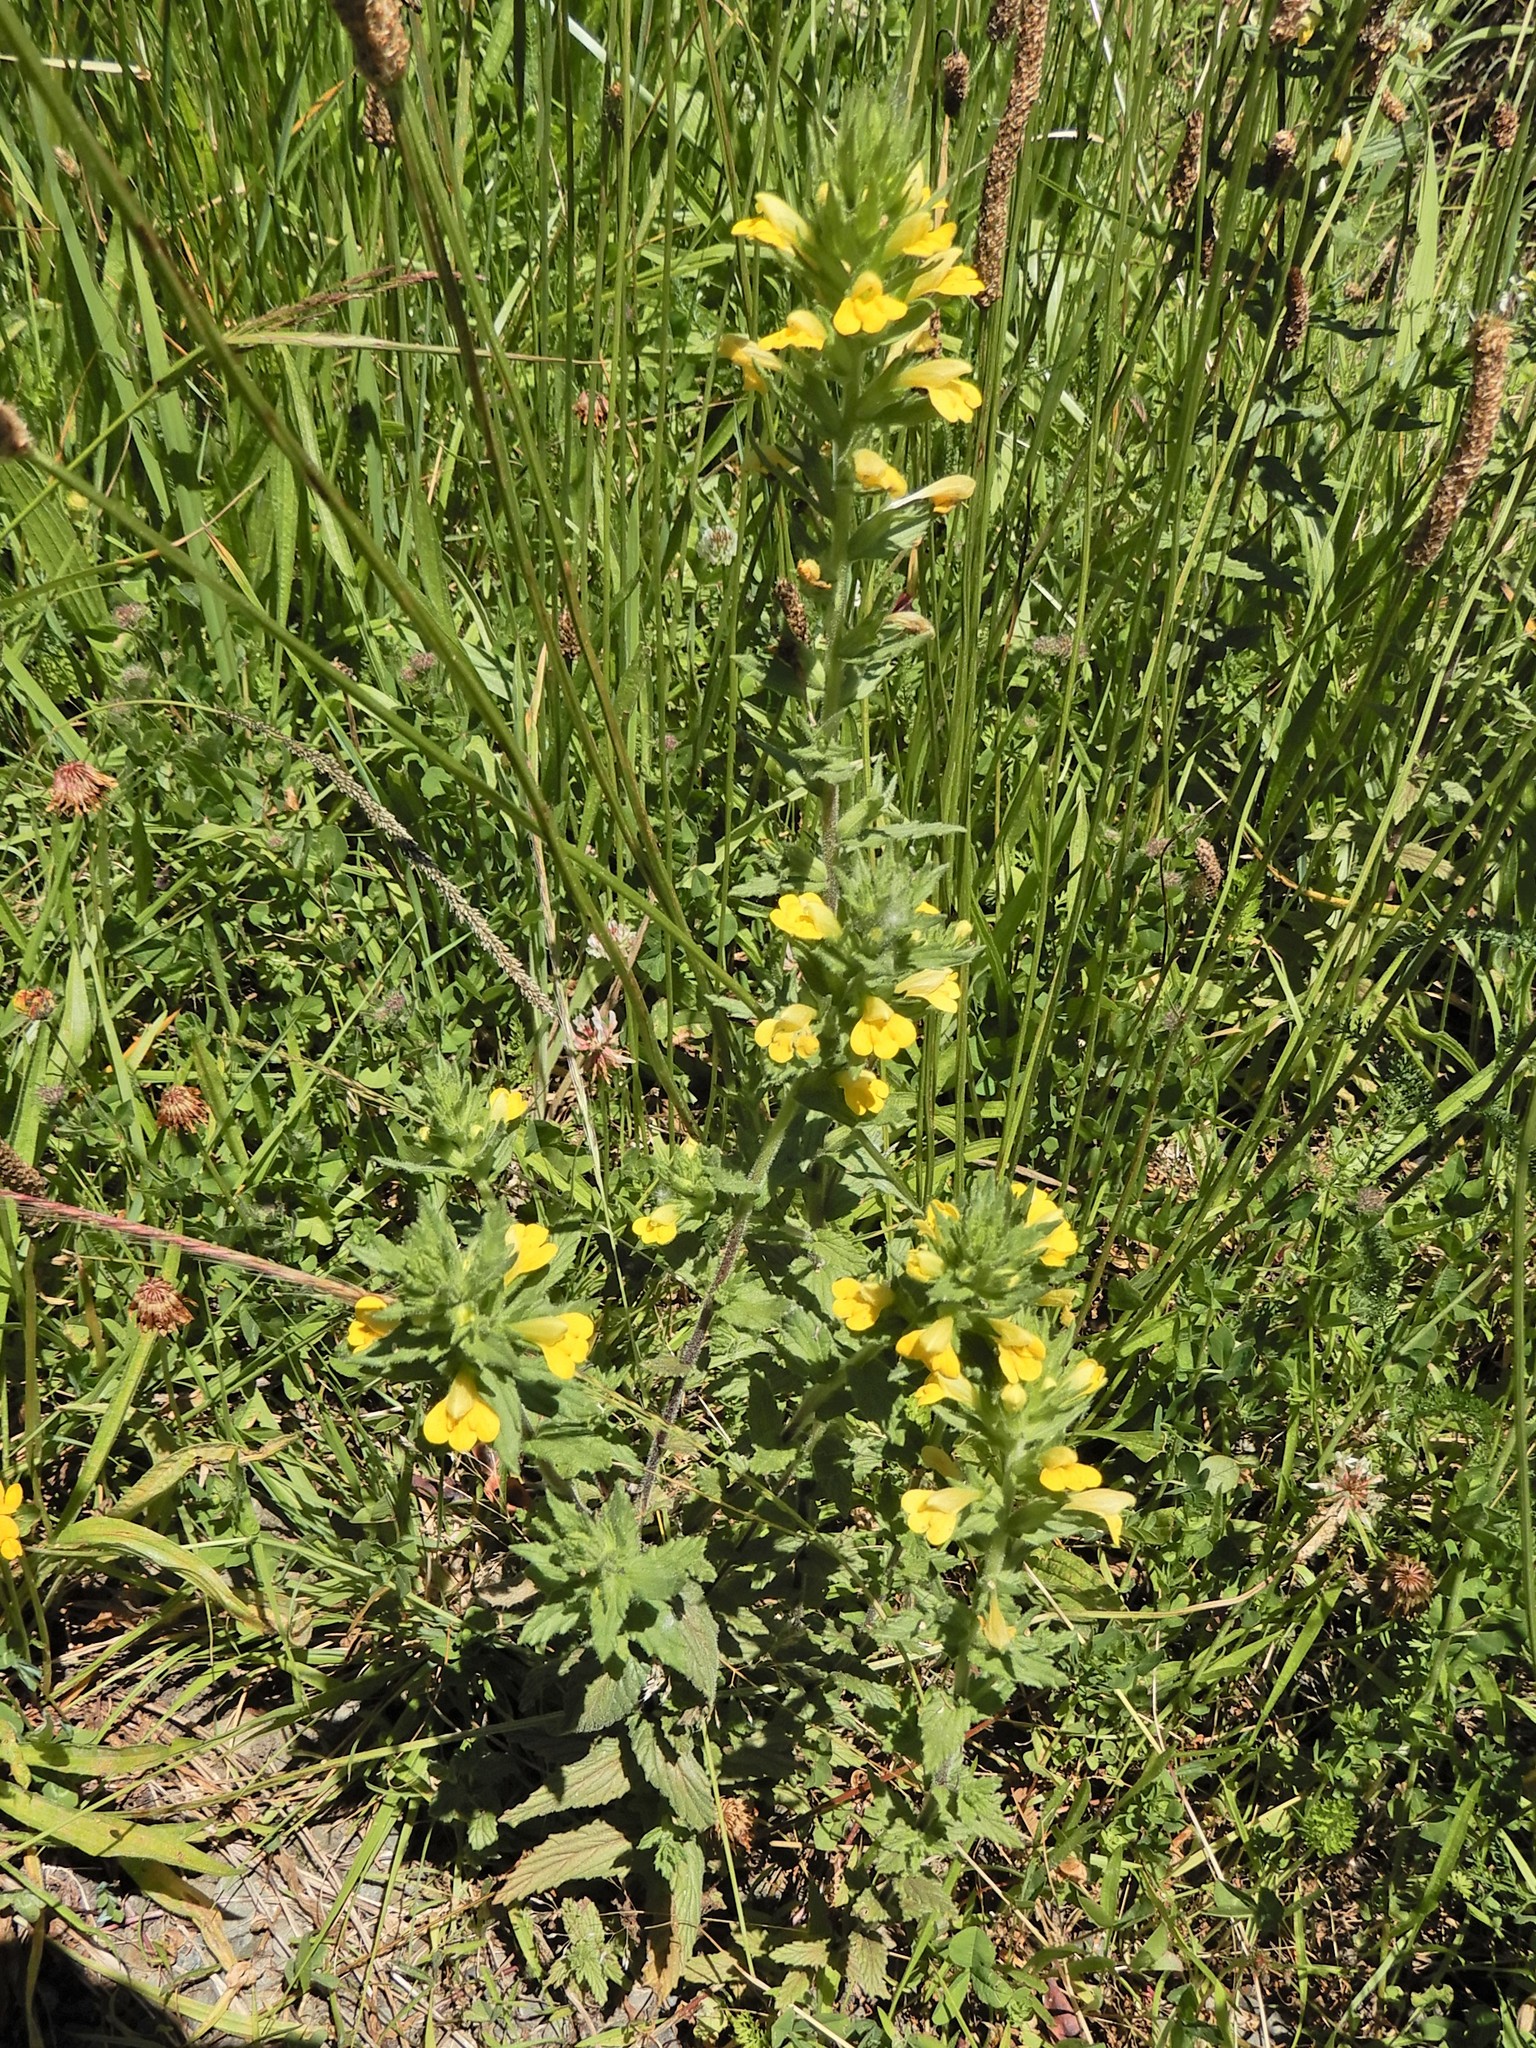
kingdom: Plantae
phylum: Tracheophyta
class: Magnoliopsida
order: Lamiales
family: Orobanchaceae
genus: Bellardia
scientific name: Bellardia viscosa
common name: Sticky parentucellia
